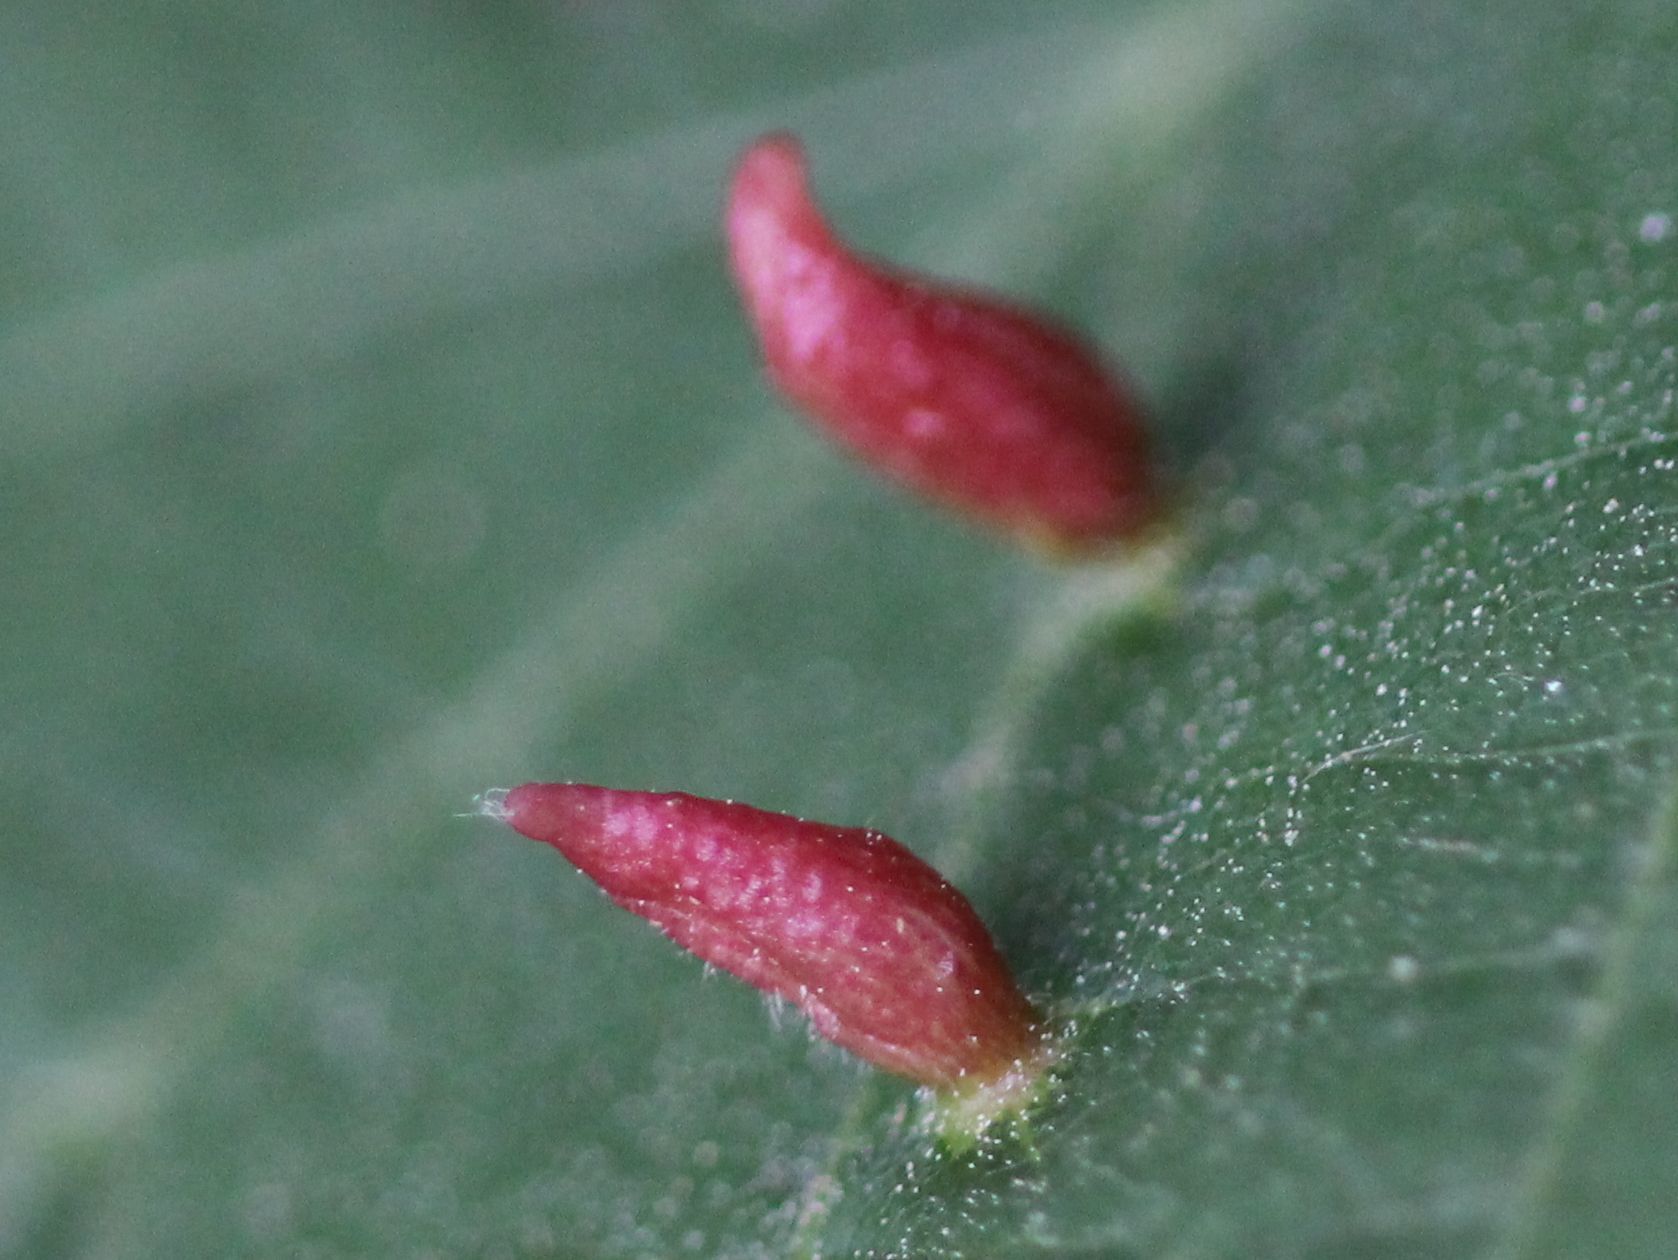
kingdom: Animalia
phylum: Arthropoda
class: Arachnida
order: Trombidiformes
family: Eriophyidae
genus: Eriophyes
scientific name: Eriophyes tiliae
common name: Red nail gall mite
